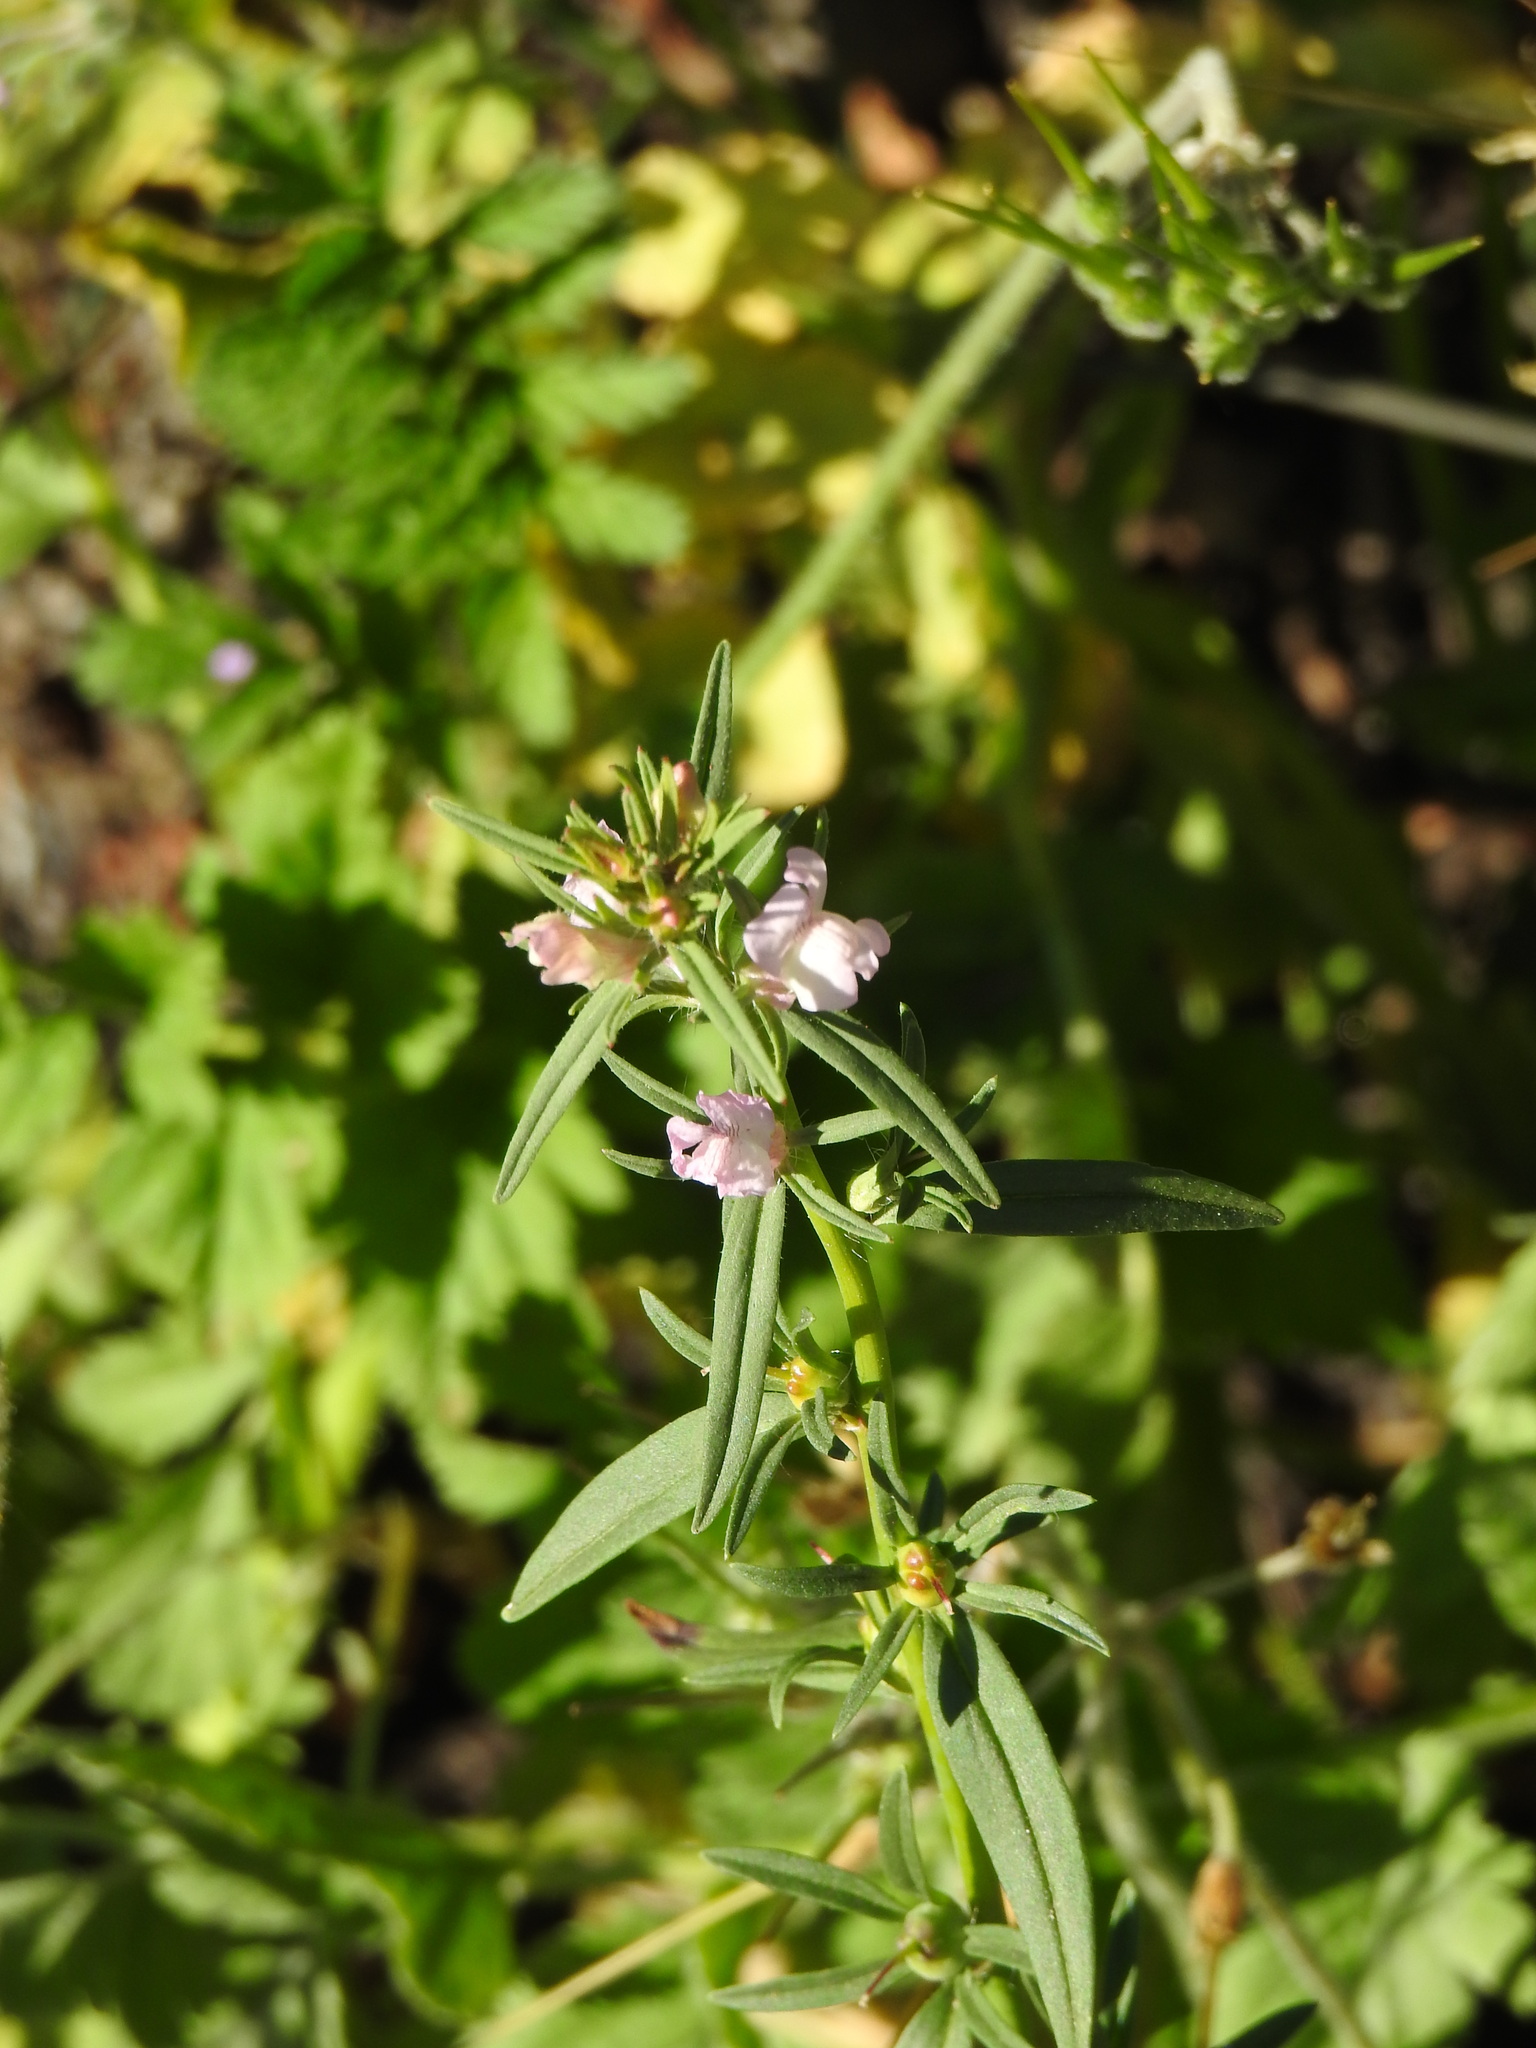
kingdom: Plantae
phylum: Tracheophyta
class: Magnoliopsida
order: Lamiales
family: Plantaginaceae
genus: Misopates
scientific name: Misopates orontium
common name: Weasel's-snout
